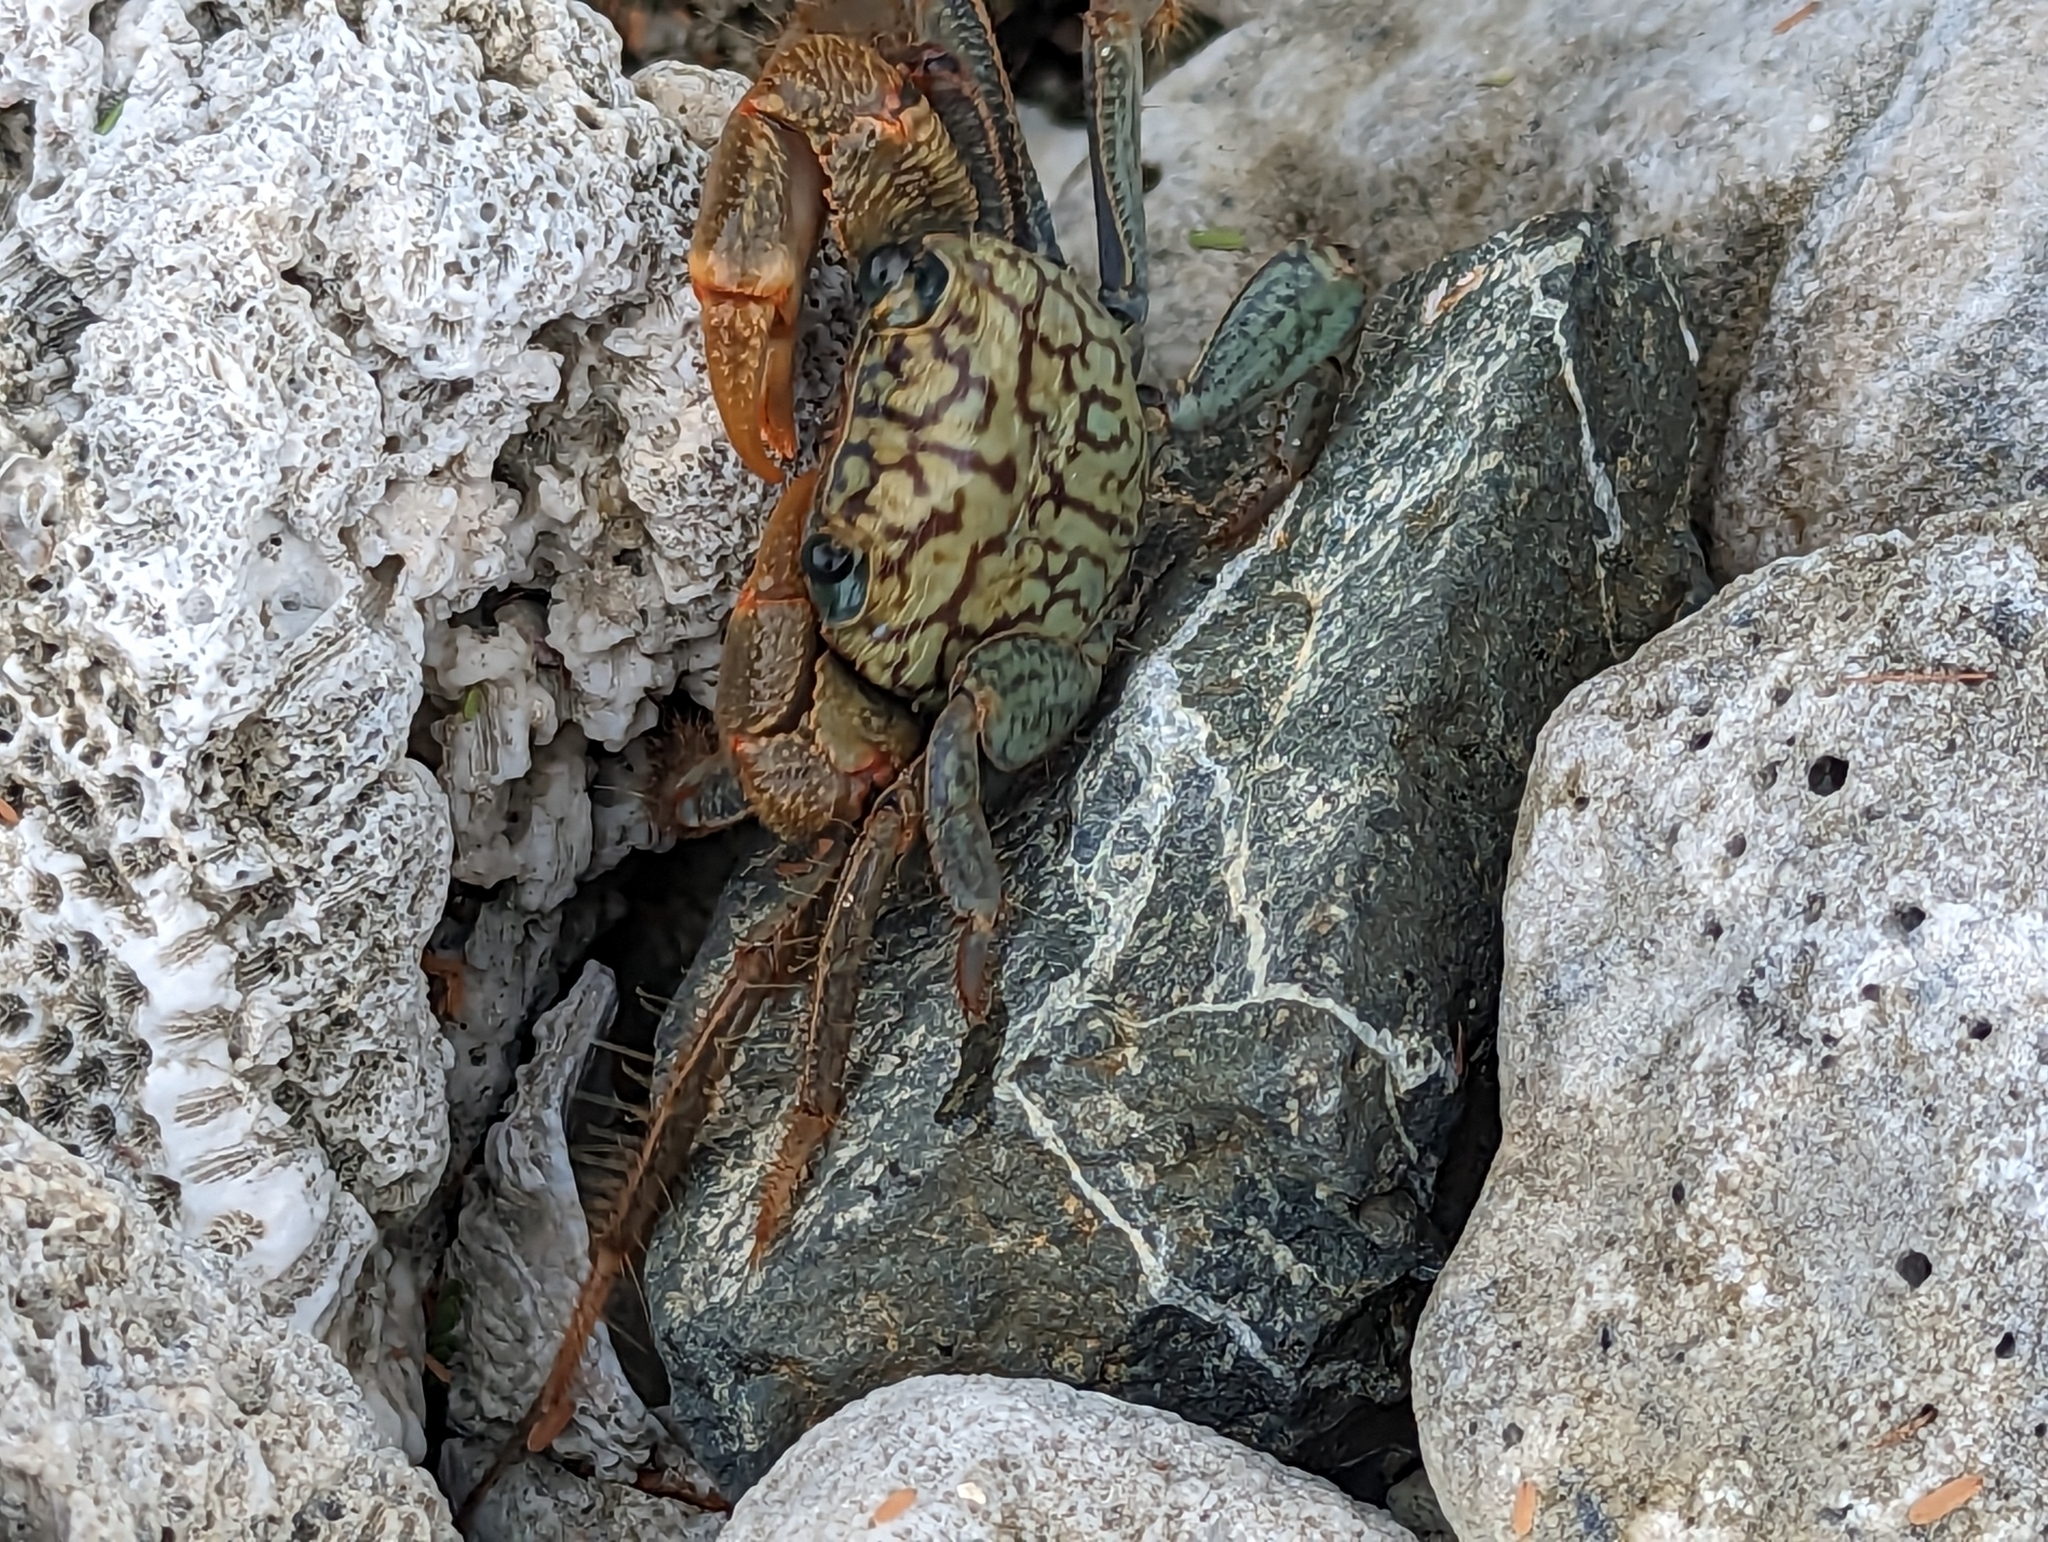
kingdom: Animalia
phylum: Arthropoda
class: Malacostraca
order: Decapoda
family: Grapsidae
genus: Geograpsus
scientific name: Geograpsus lividus
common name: Variegate shore crab
